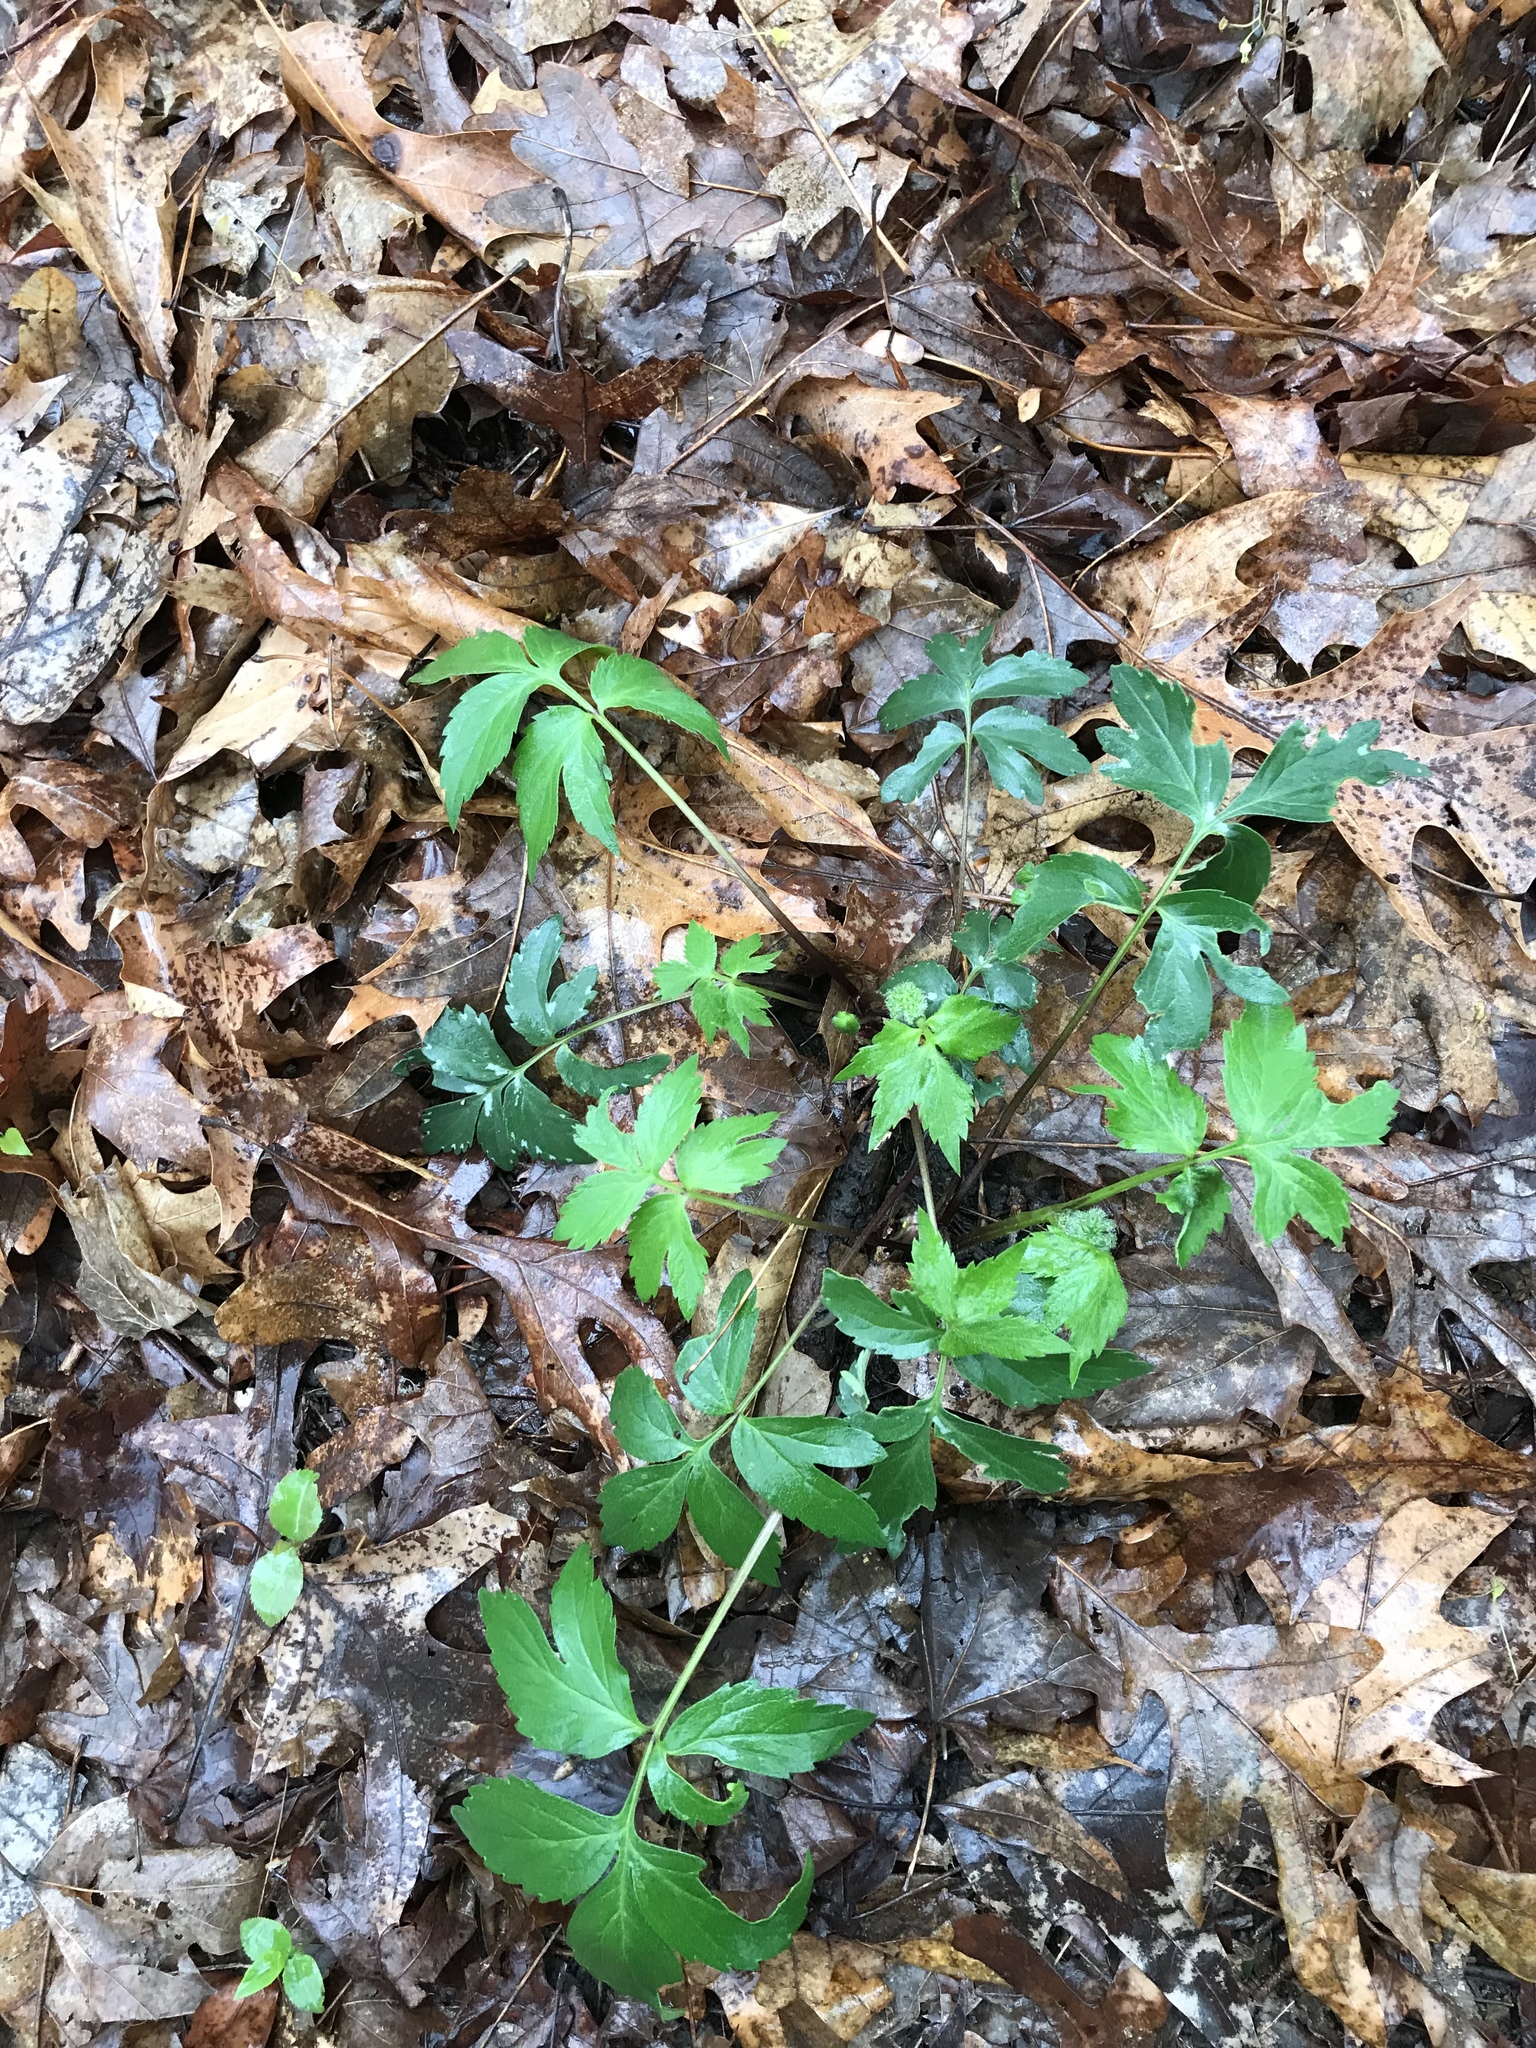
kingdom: Plantae
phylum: Tracheophyta
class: Magnoliopsida
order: Boraginales
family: Hydrophyllaceae
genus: Hydrophyllum
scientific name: Hydrophyllum virginianum
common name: Virginia waterleaf
